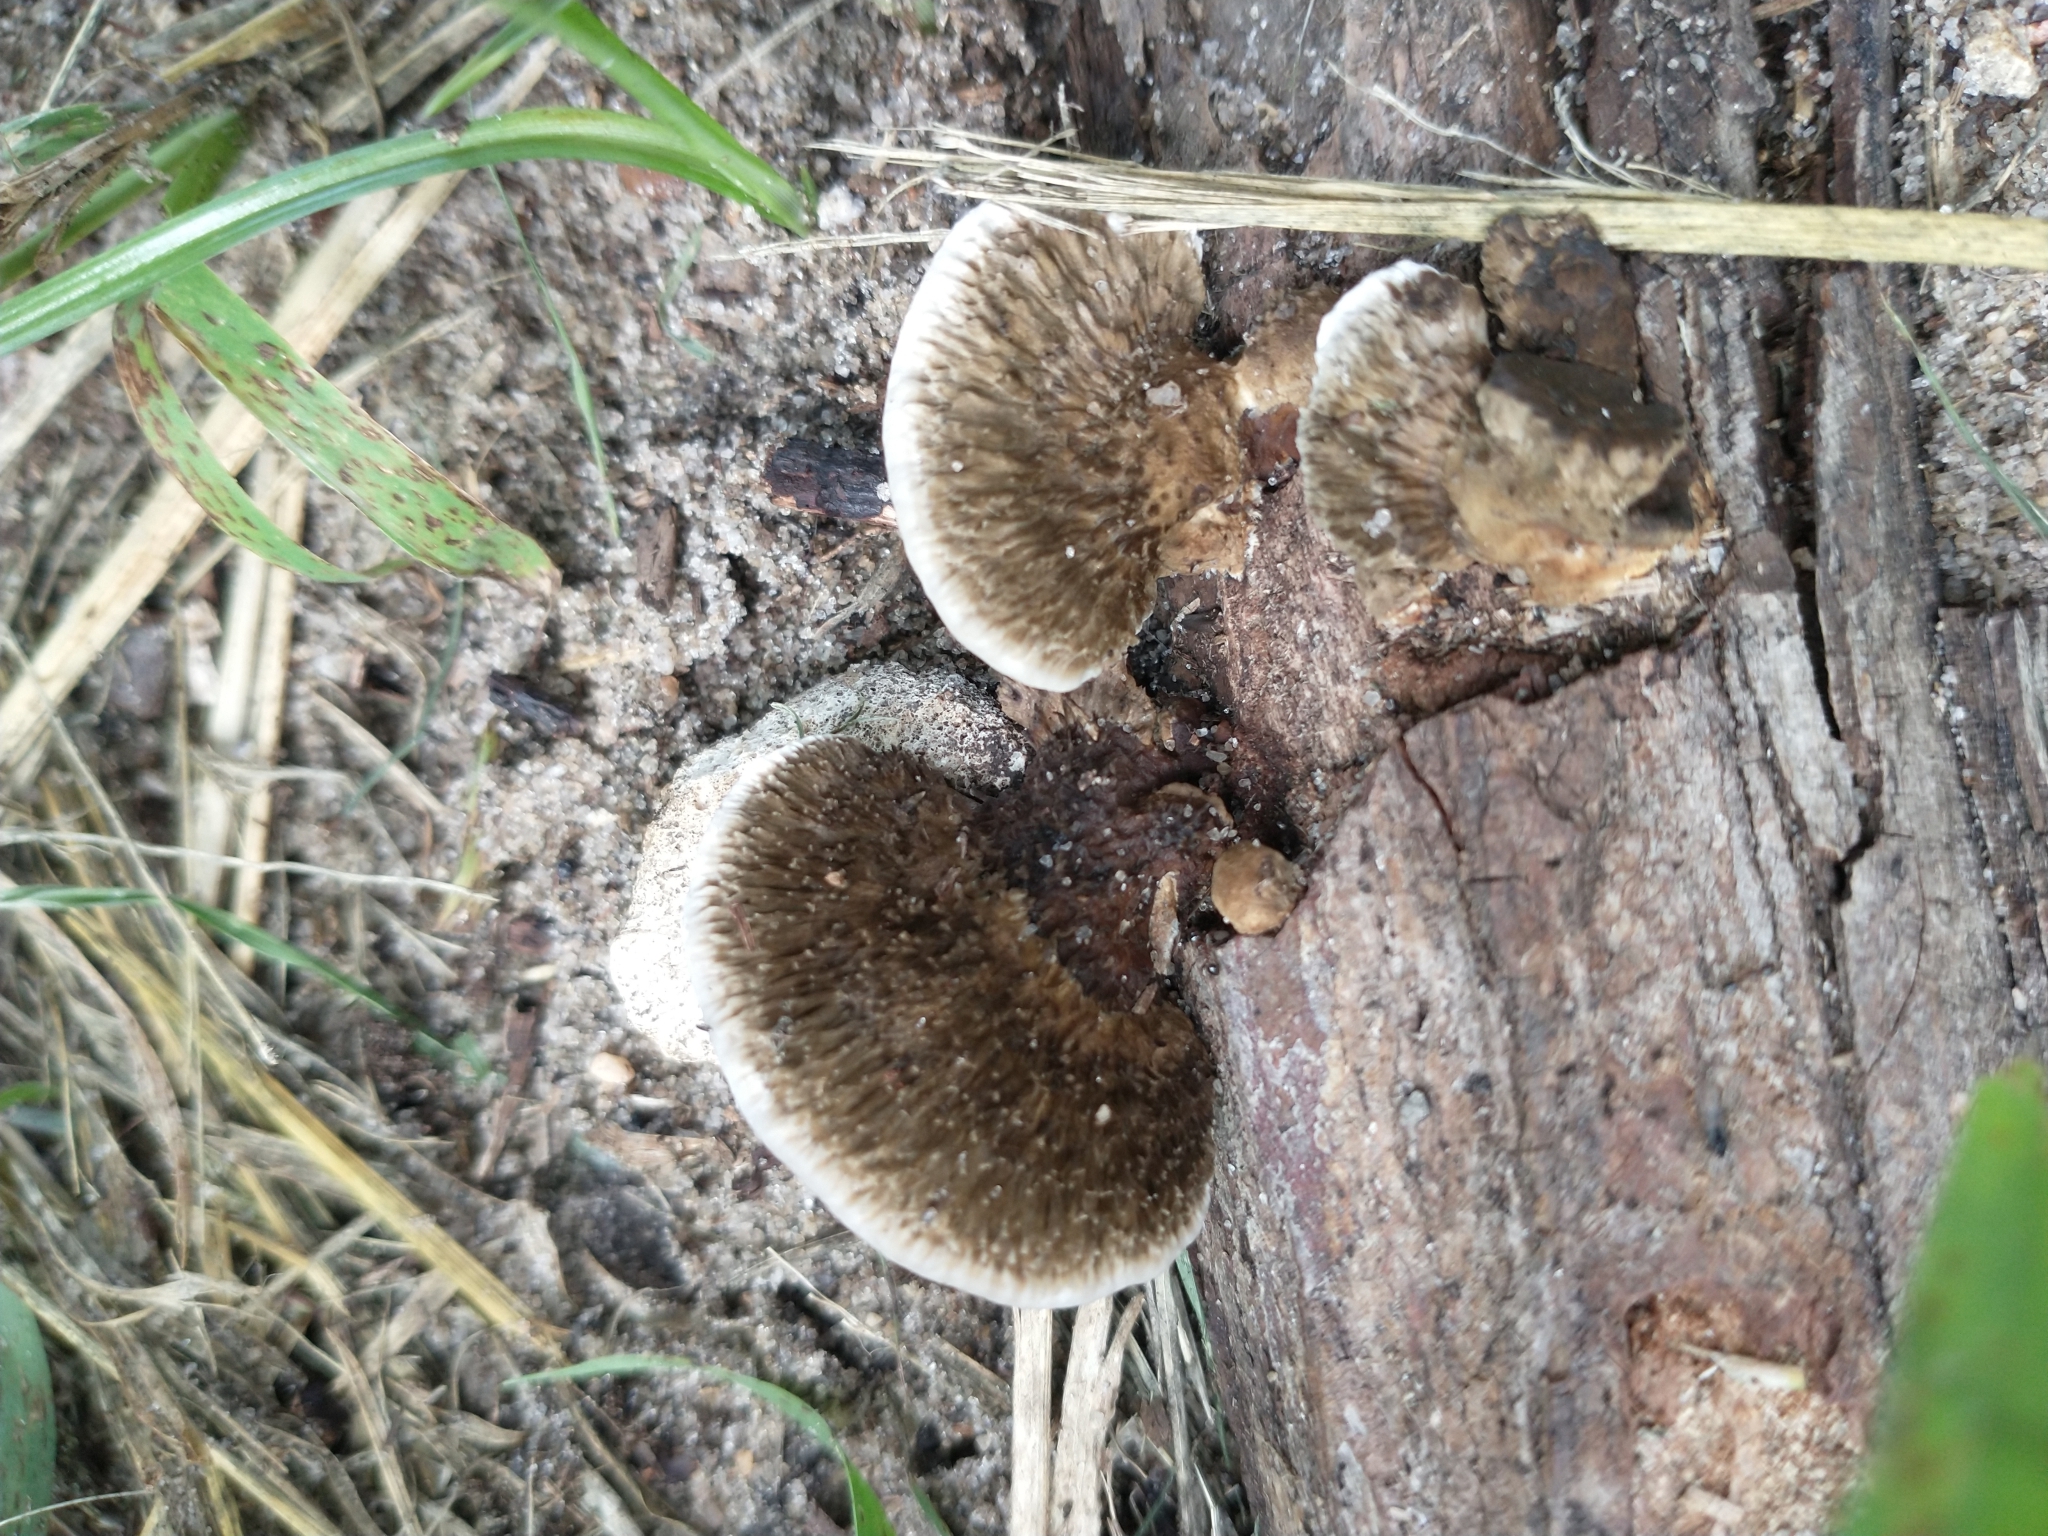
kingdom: Fungi
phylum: Basidiomycota
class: Agaricomycetes
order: Polyporales
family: Cerrenaceae
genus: Cerrena
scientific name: Cerrena hydnoides
